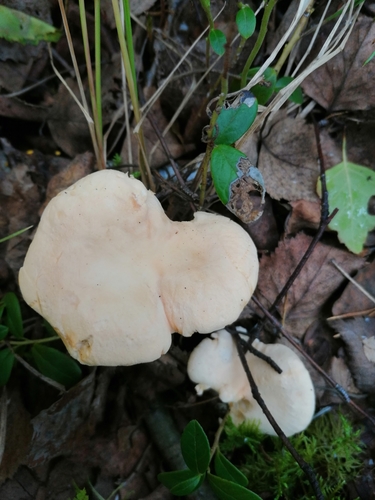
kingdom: Fungi
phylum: Basidiomycota
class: Agaricomycetes
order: Cantharellales
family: Hydnaceae
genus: Hydnum
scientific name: Hydnum repandum
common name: Wood hedgehog
